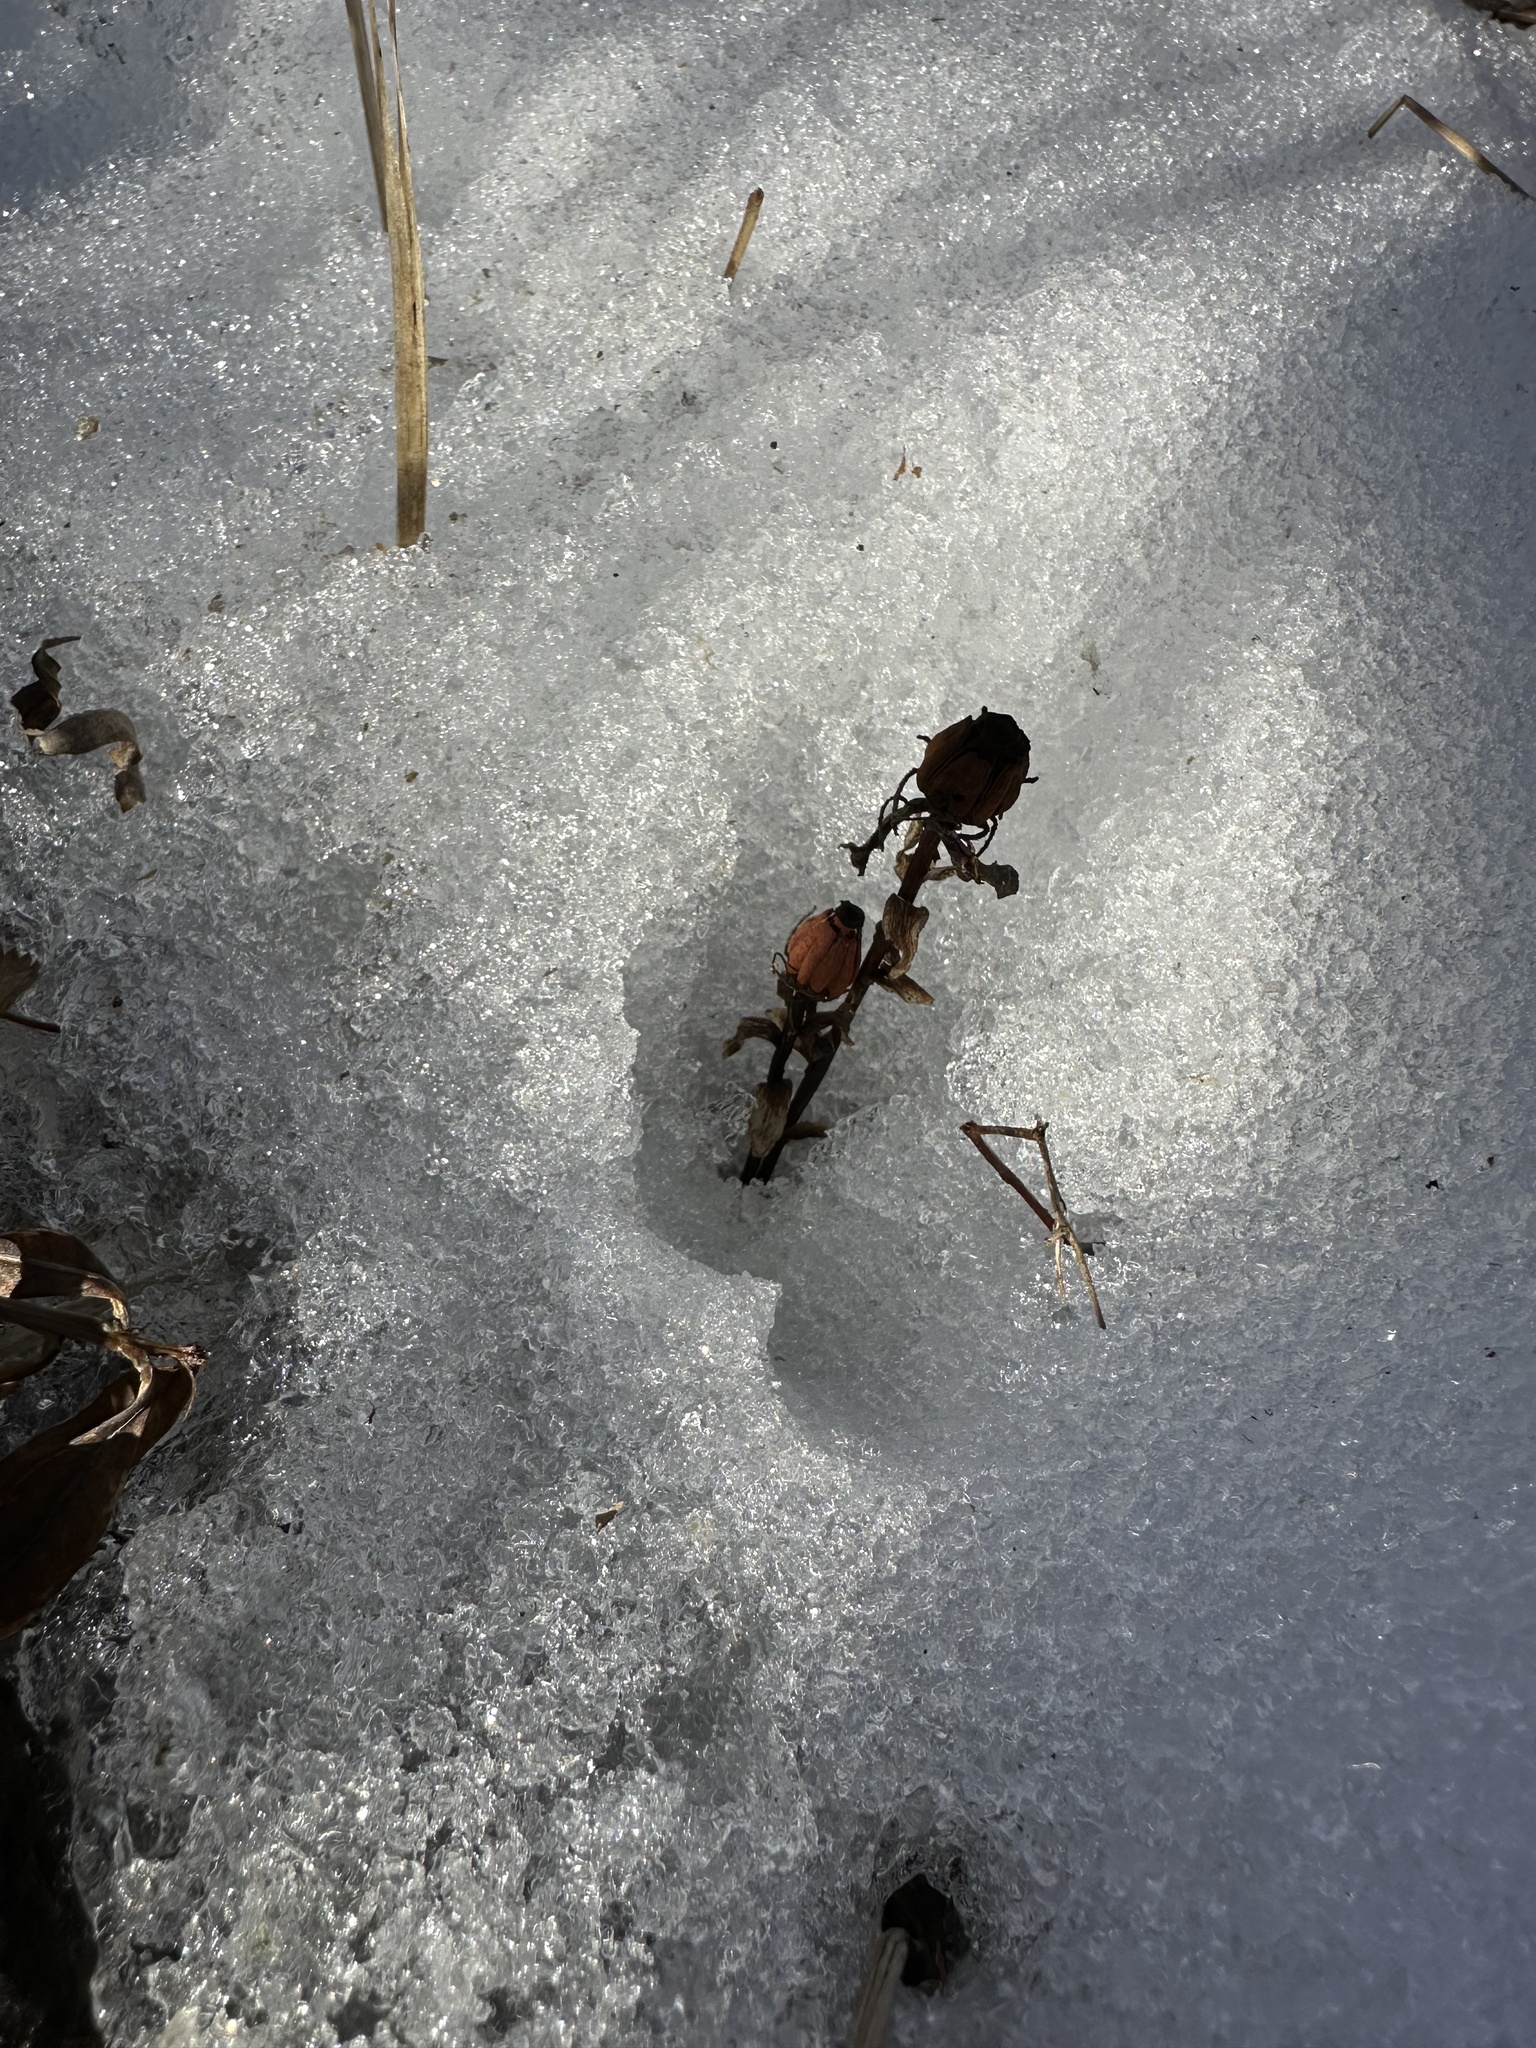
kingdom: Plantae
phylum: Tracheophyta
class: Magnoliopsida
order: Ericales
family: Ericaceae
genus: Monotropa
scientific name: Monotropa uniflora
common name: Convulsion root
